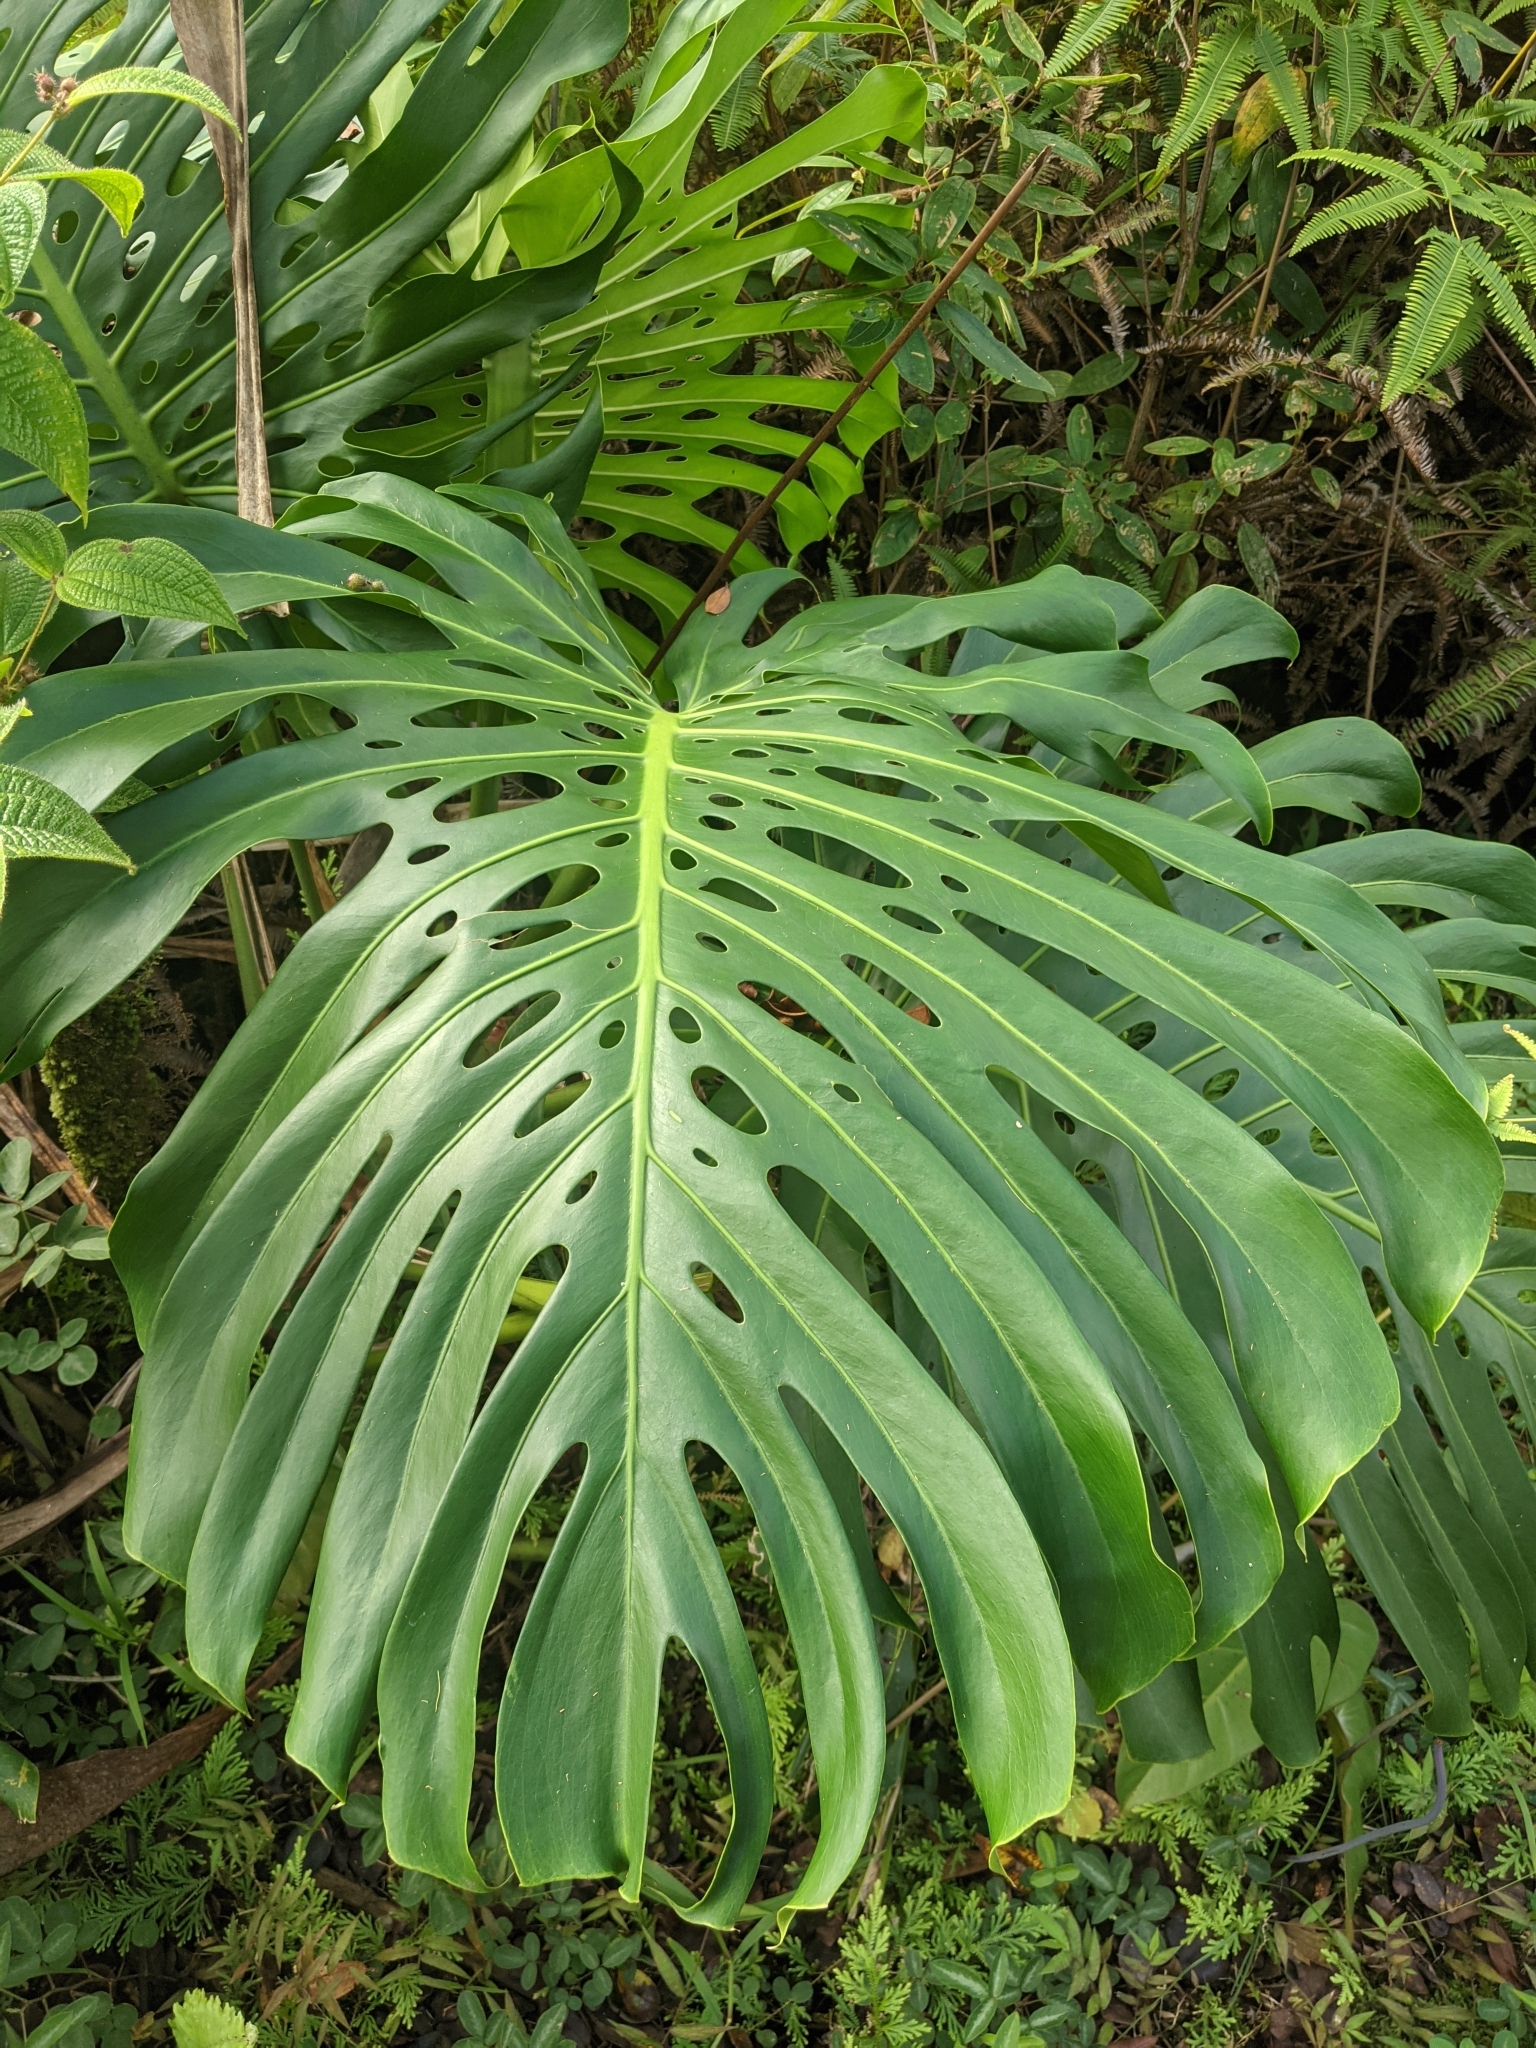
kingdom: Plantae
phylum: Tracheophyta
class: Liliopsida
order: Alismatales
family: Araceae
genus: Monstera
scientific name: Monstera deliciosa
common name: Cut-leaf-philodendron
